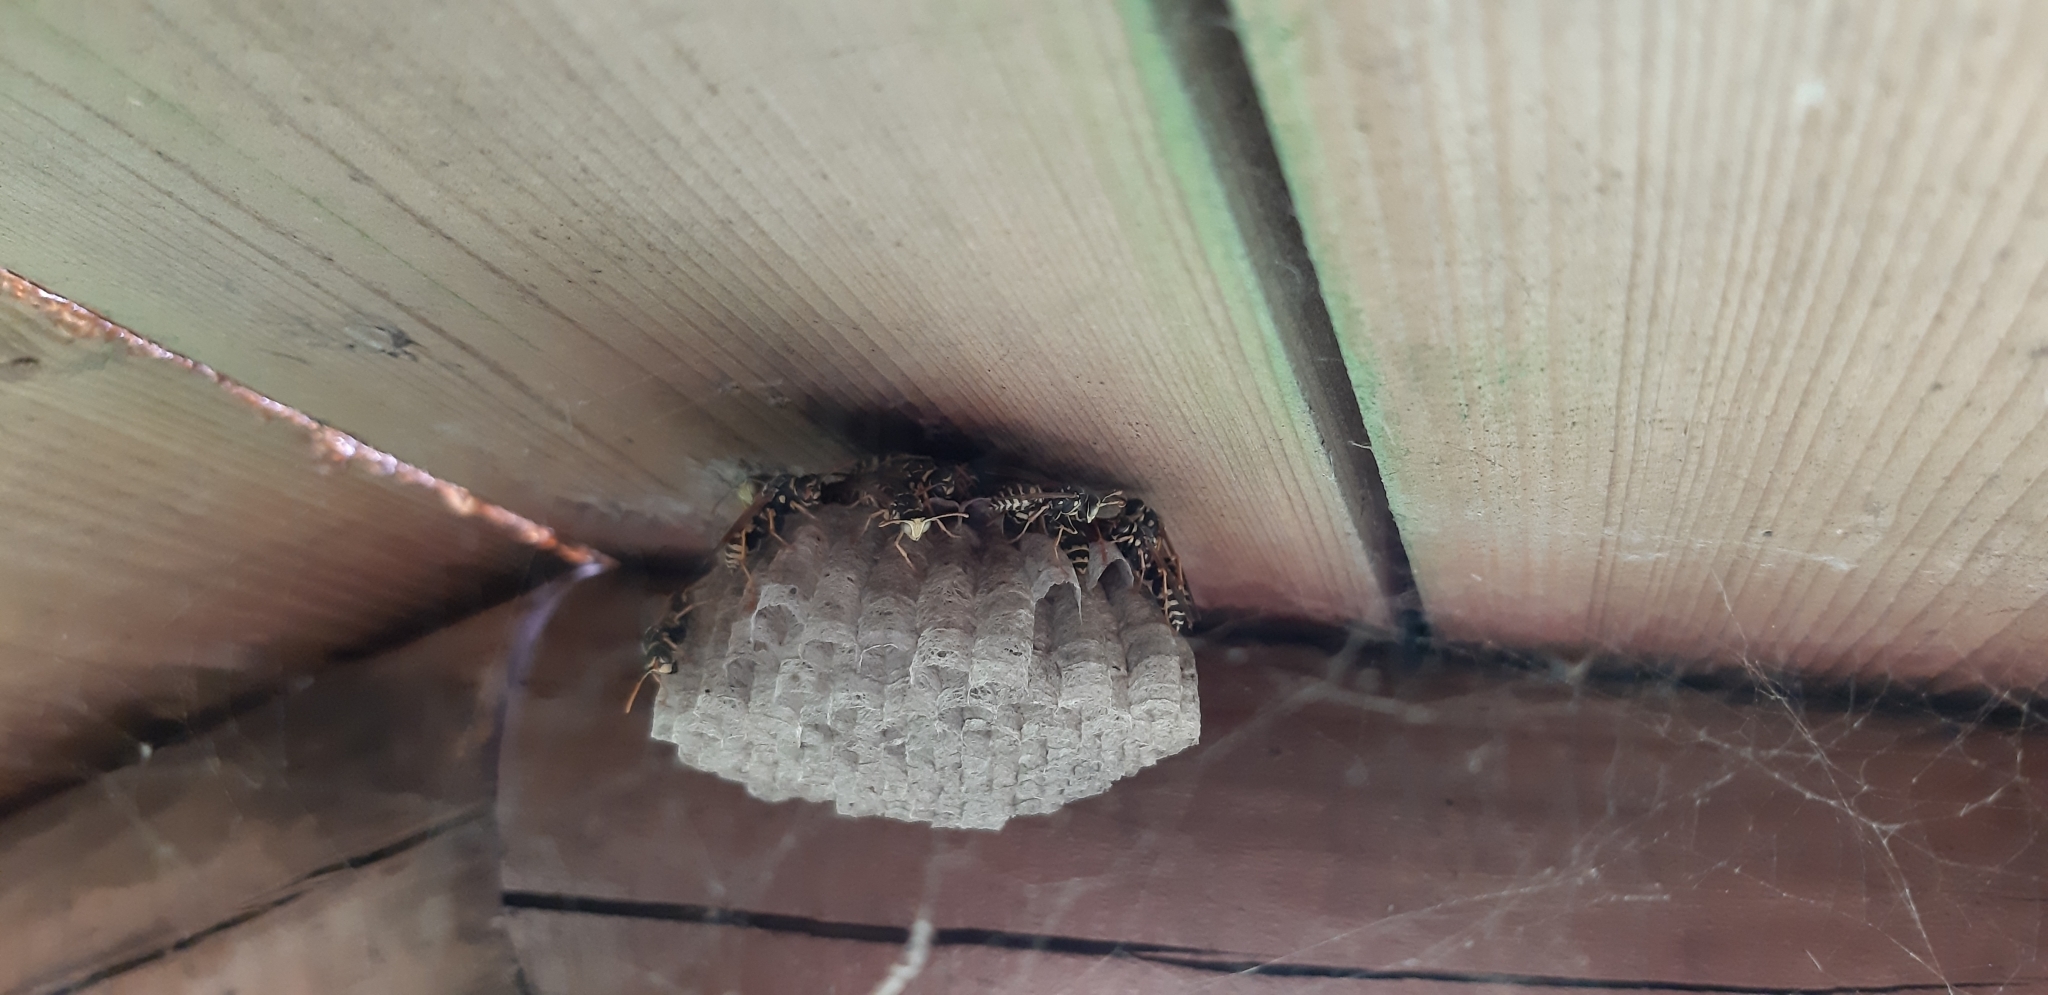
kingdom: Animalia
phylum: Arthropoda
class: Insecta
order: Hymenoptera
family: Eumenidae
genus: Polistes
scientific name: Polistes dominula
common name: Paper wasp
